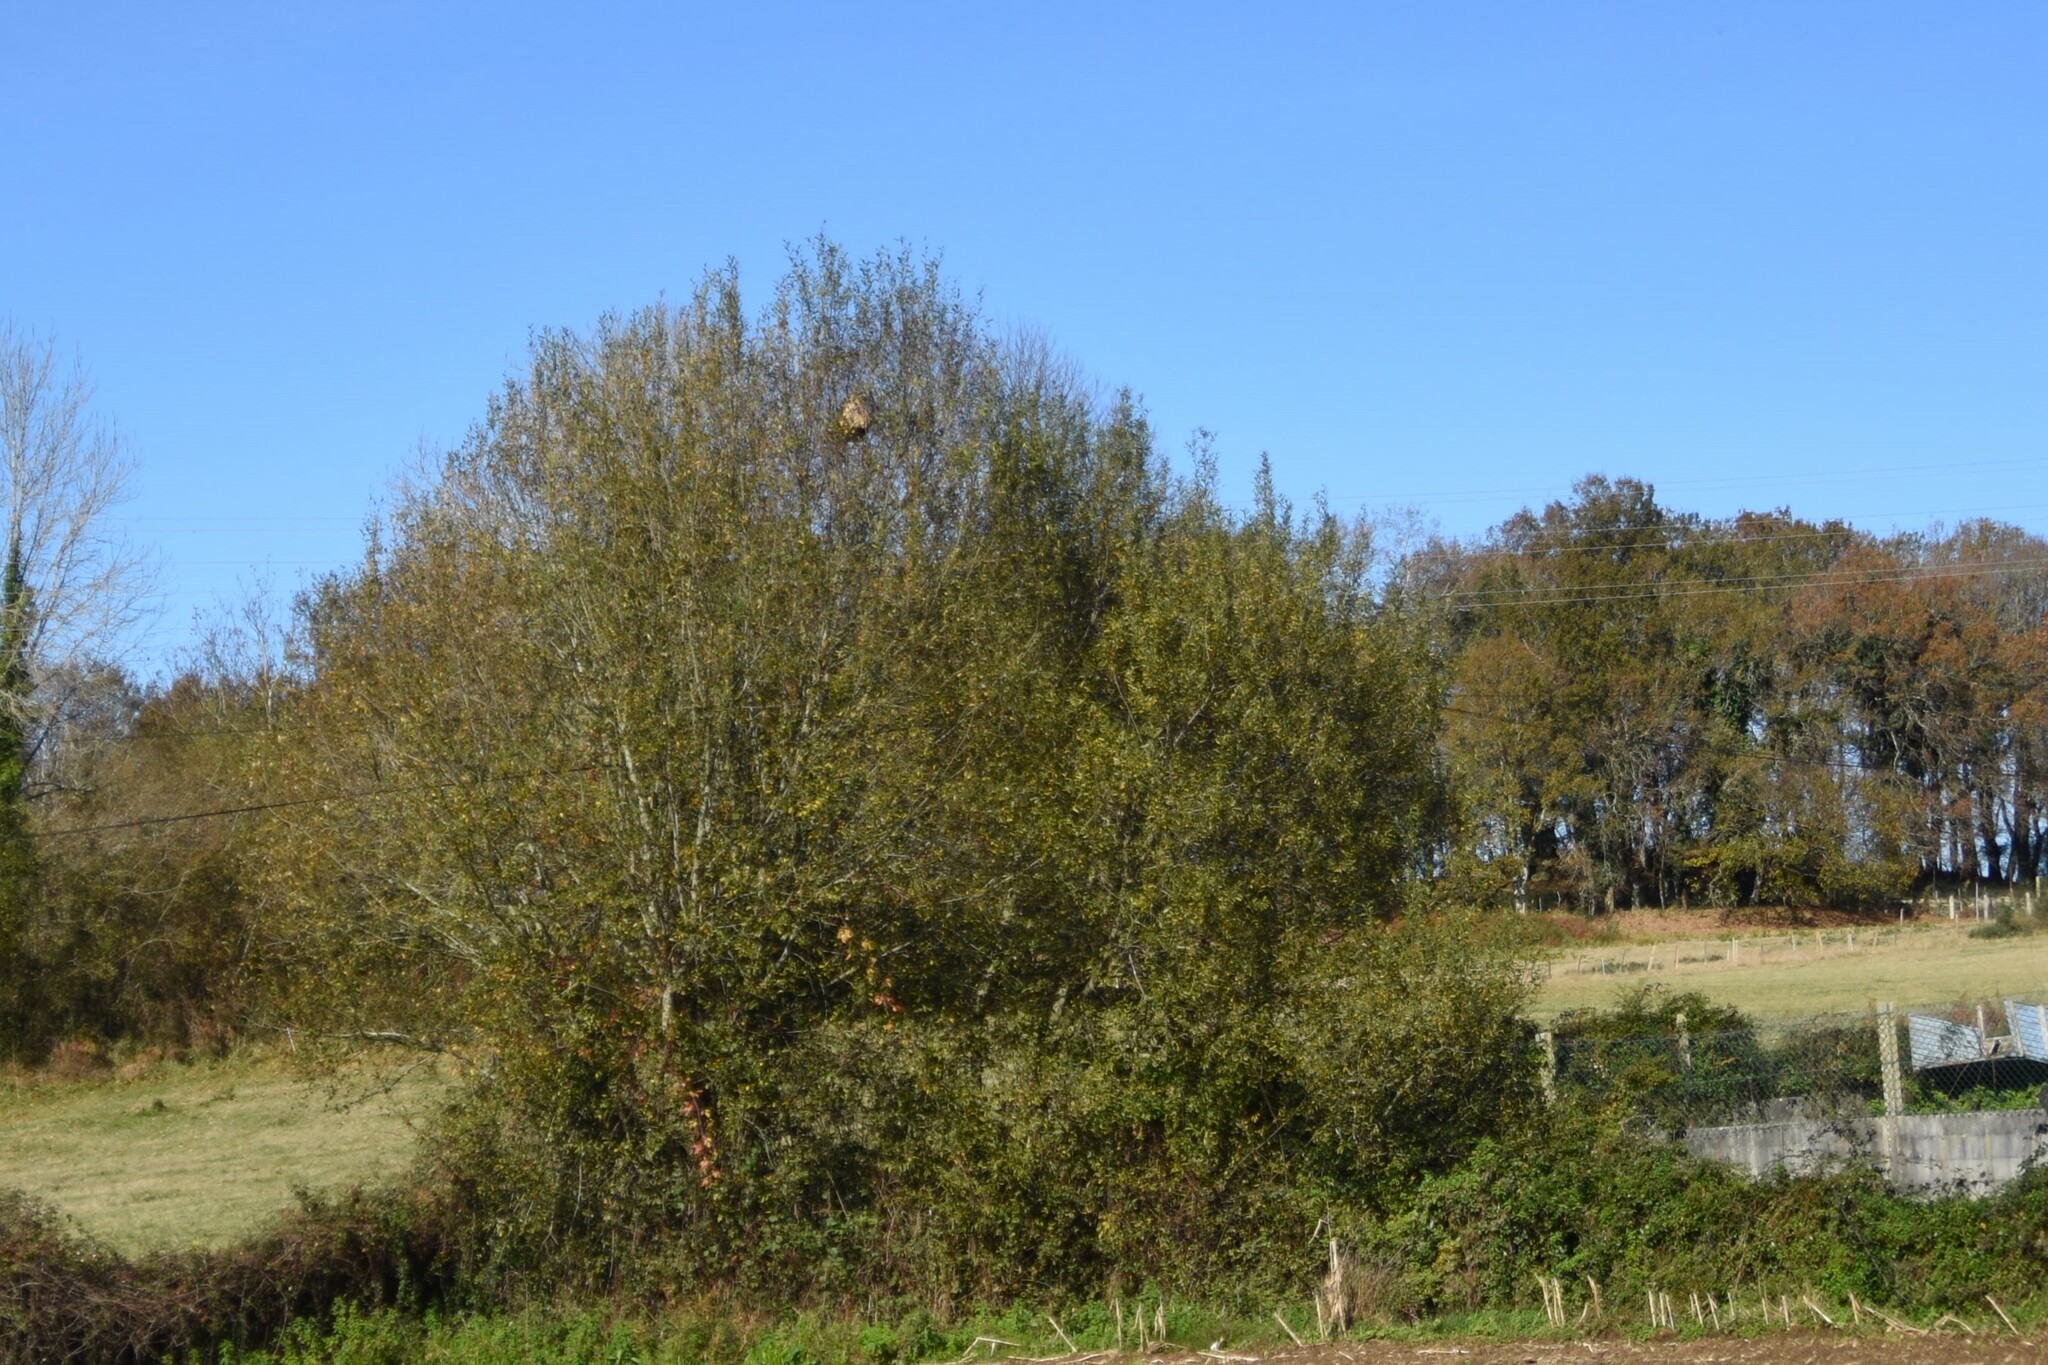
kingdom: Animalia
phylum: Arthropoda
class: Insecta
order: Hymenoptera
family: Vespidae
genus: Vespa
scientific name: Vespa velutina
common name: Asian hornet
